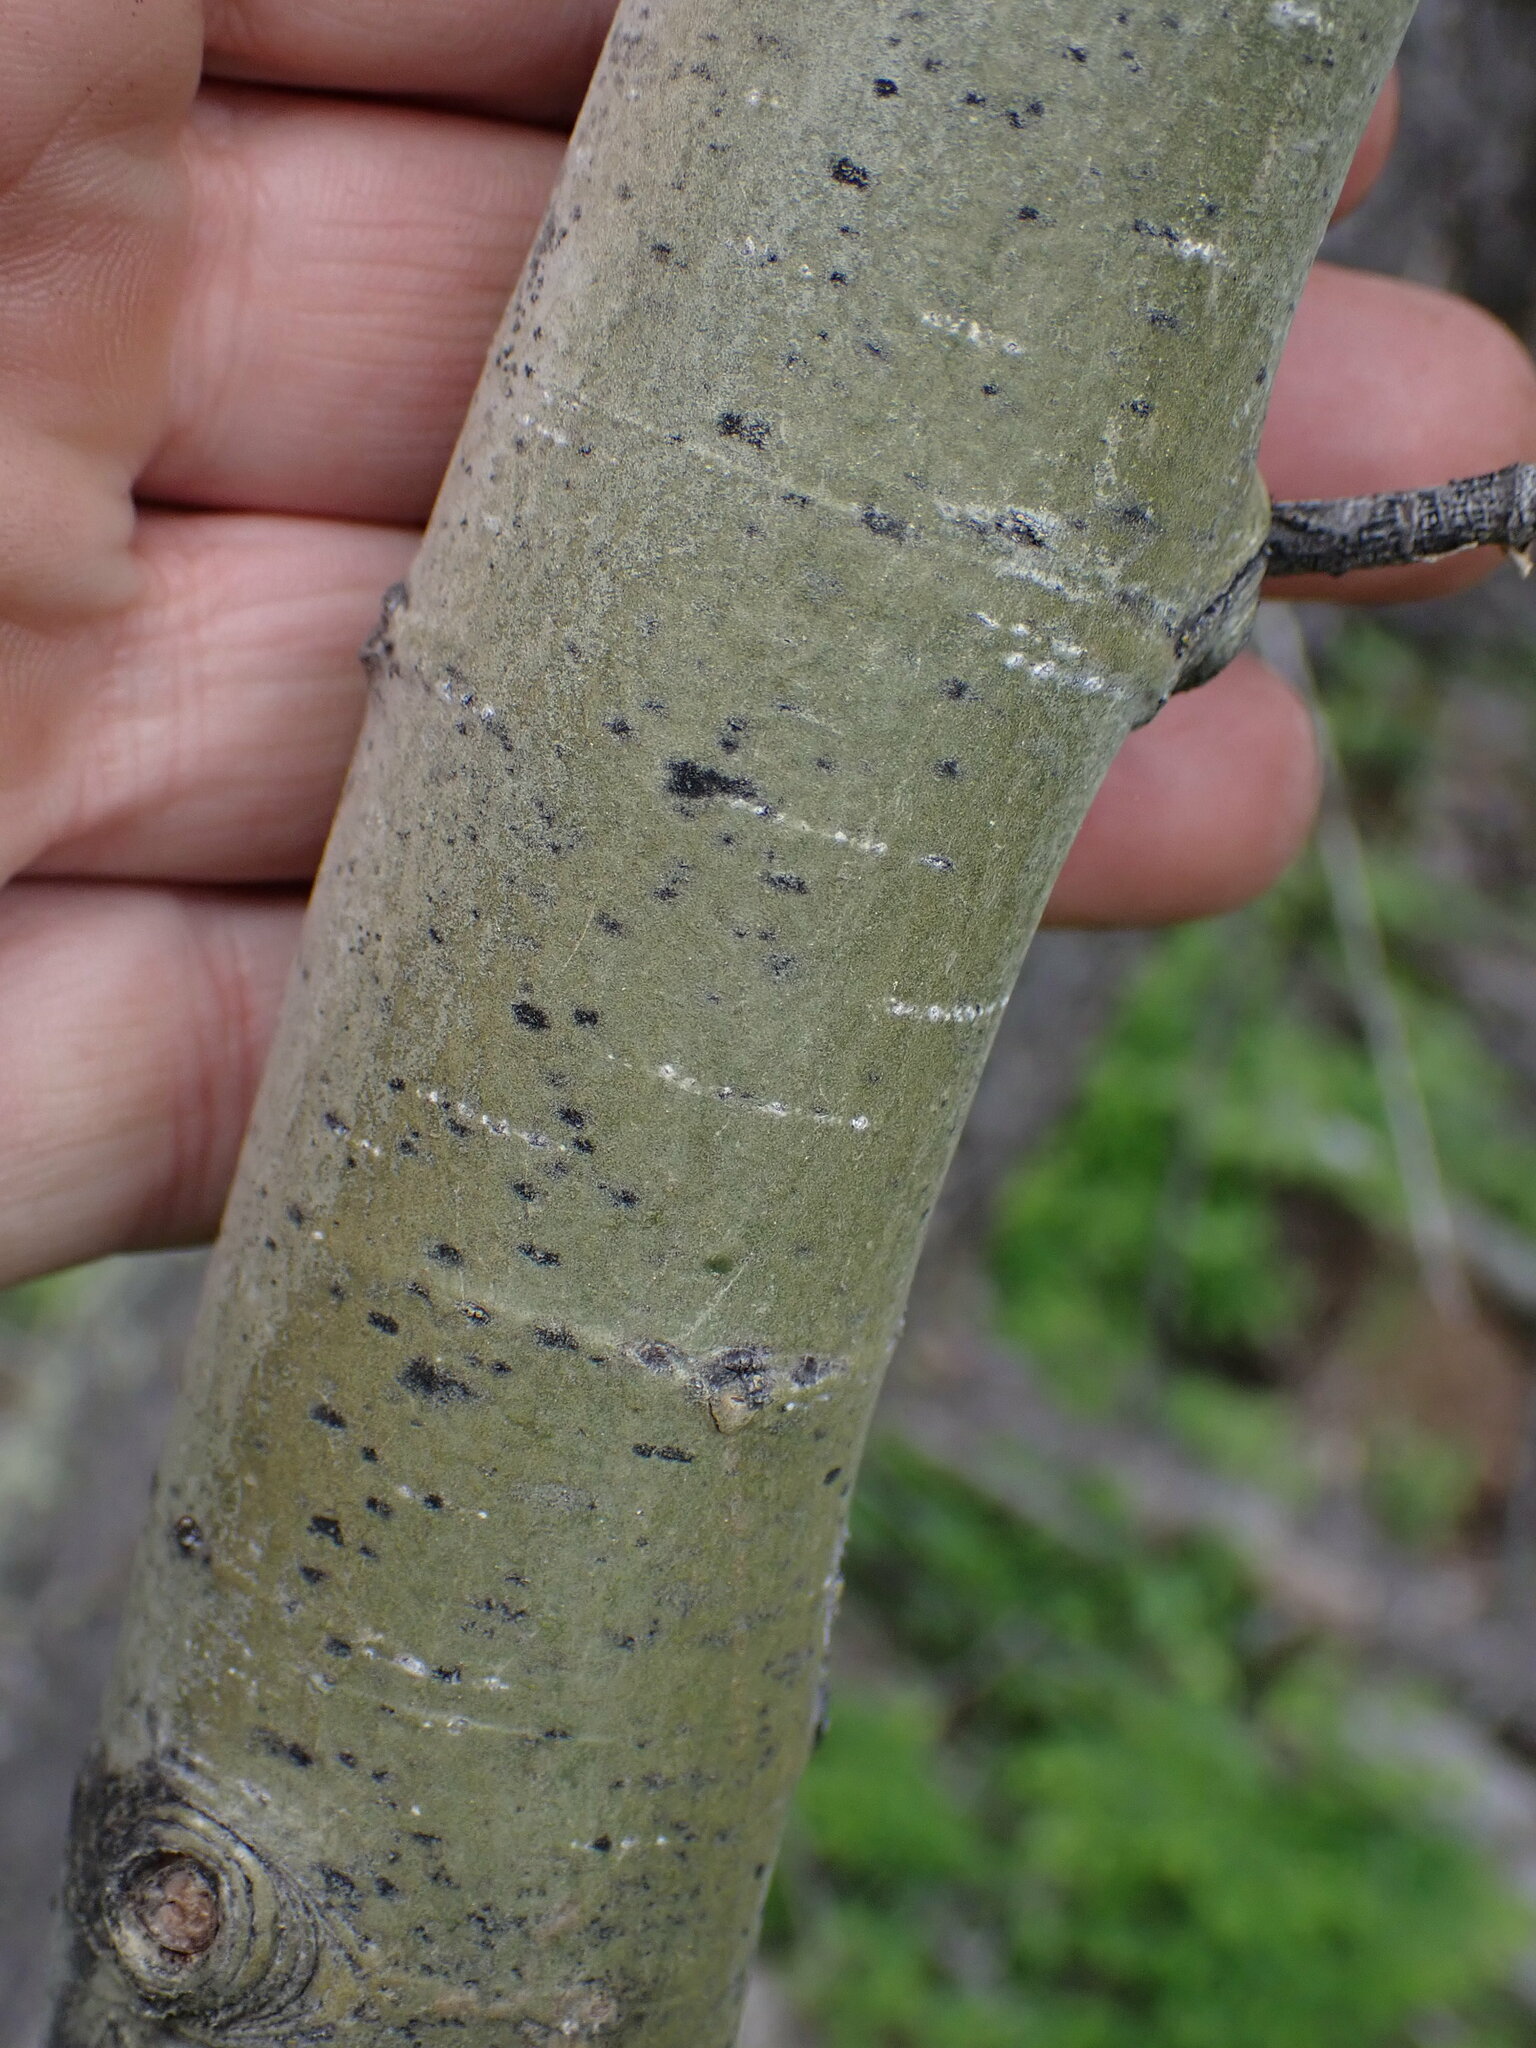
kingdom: Plantae
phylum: Tracheophyta
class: Magnoliopsida
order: Malpighiales
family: Salicaceae
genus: Populus
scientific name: Populus tremuloides
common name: Quaking aspen
